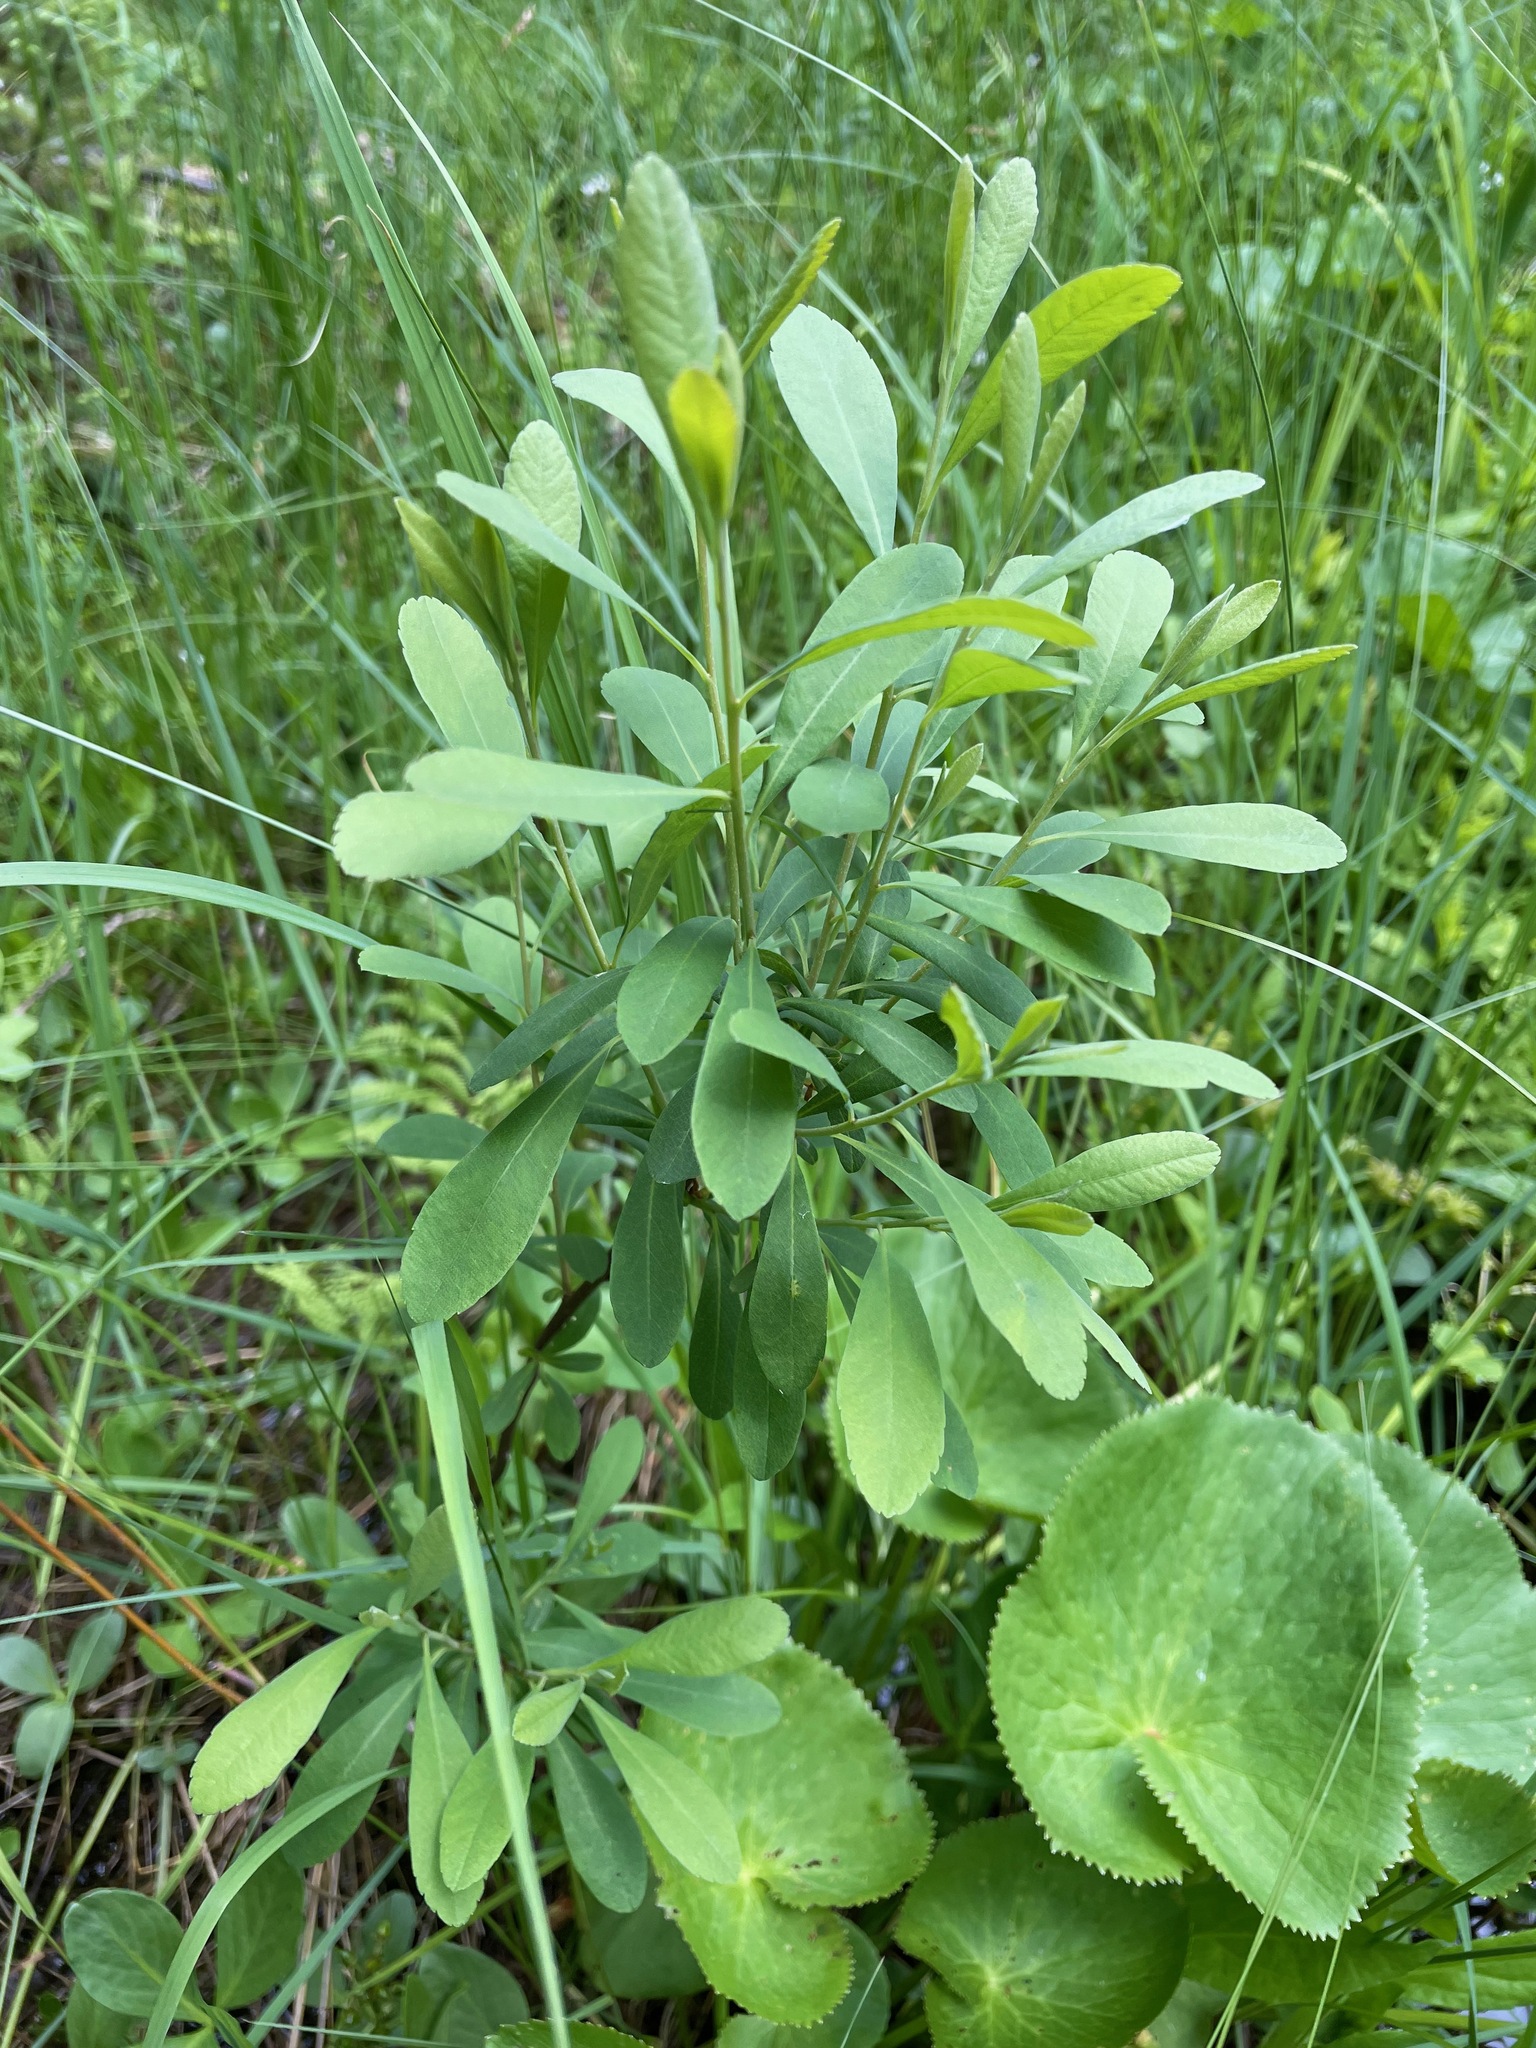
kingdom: Plantae
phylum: Tracheophyta
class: Magnoliopsida
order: Fagales
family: Myricaceae
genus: Myrica
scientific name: Myrica gale
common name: Sweet gale
